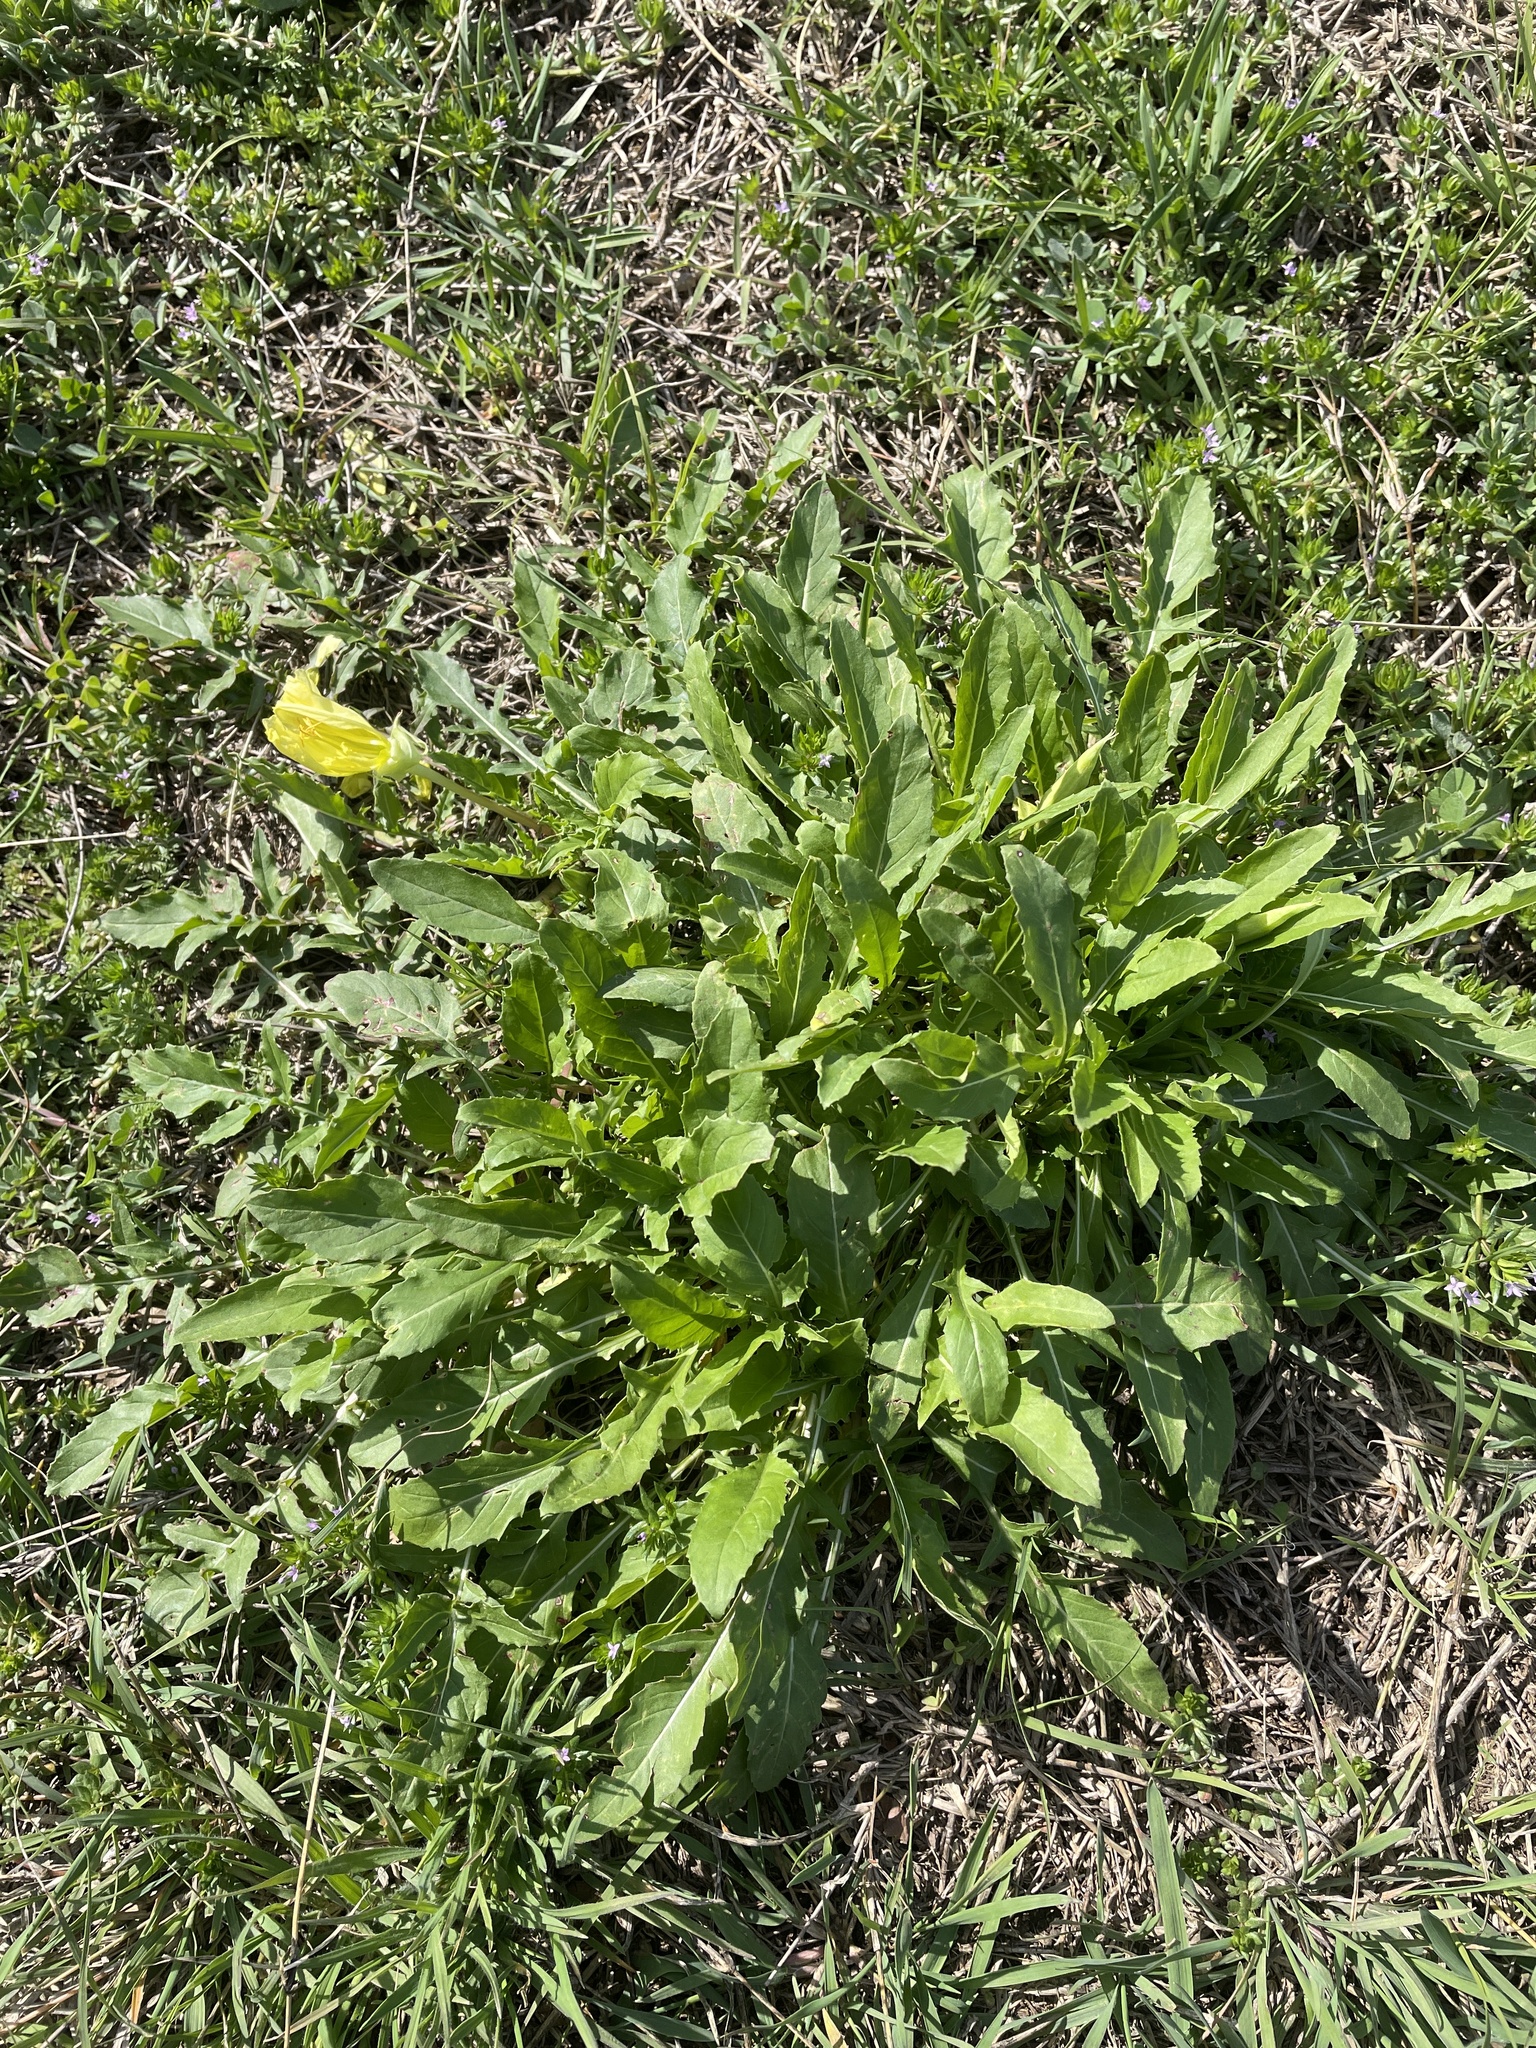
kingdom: Plantae
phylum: Tracheophyta
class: Magnoliopsida
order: Myrtales
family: Onagraceae
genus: Oenothera
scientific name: Oenothera triloba
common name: Sessile evening-primrose
